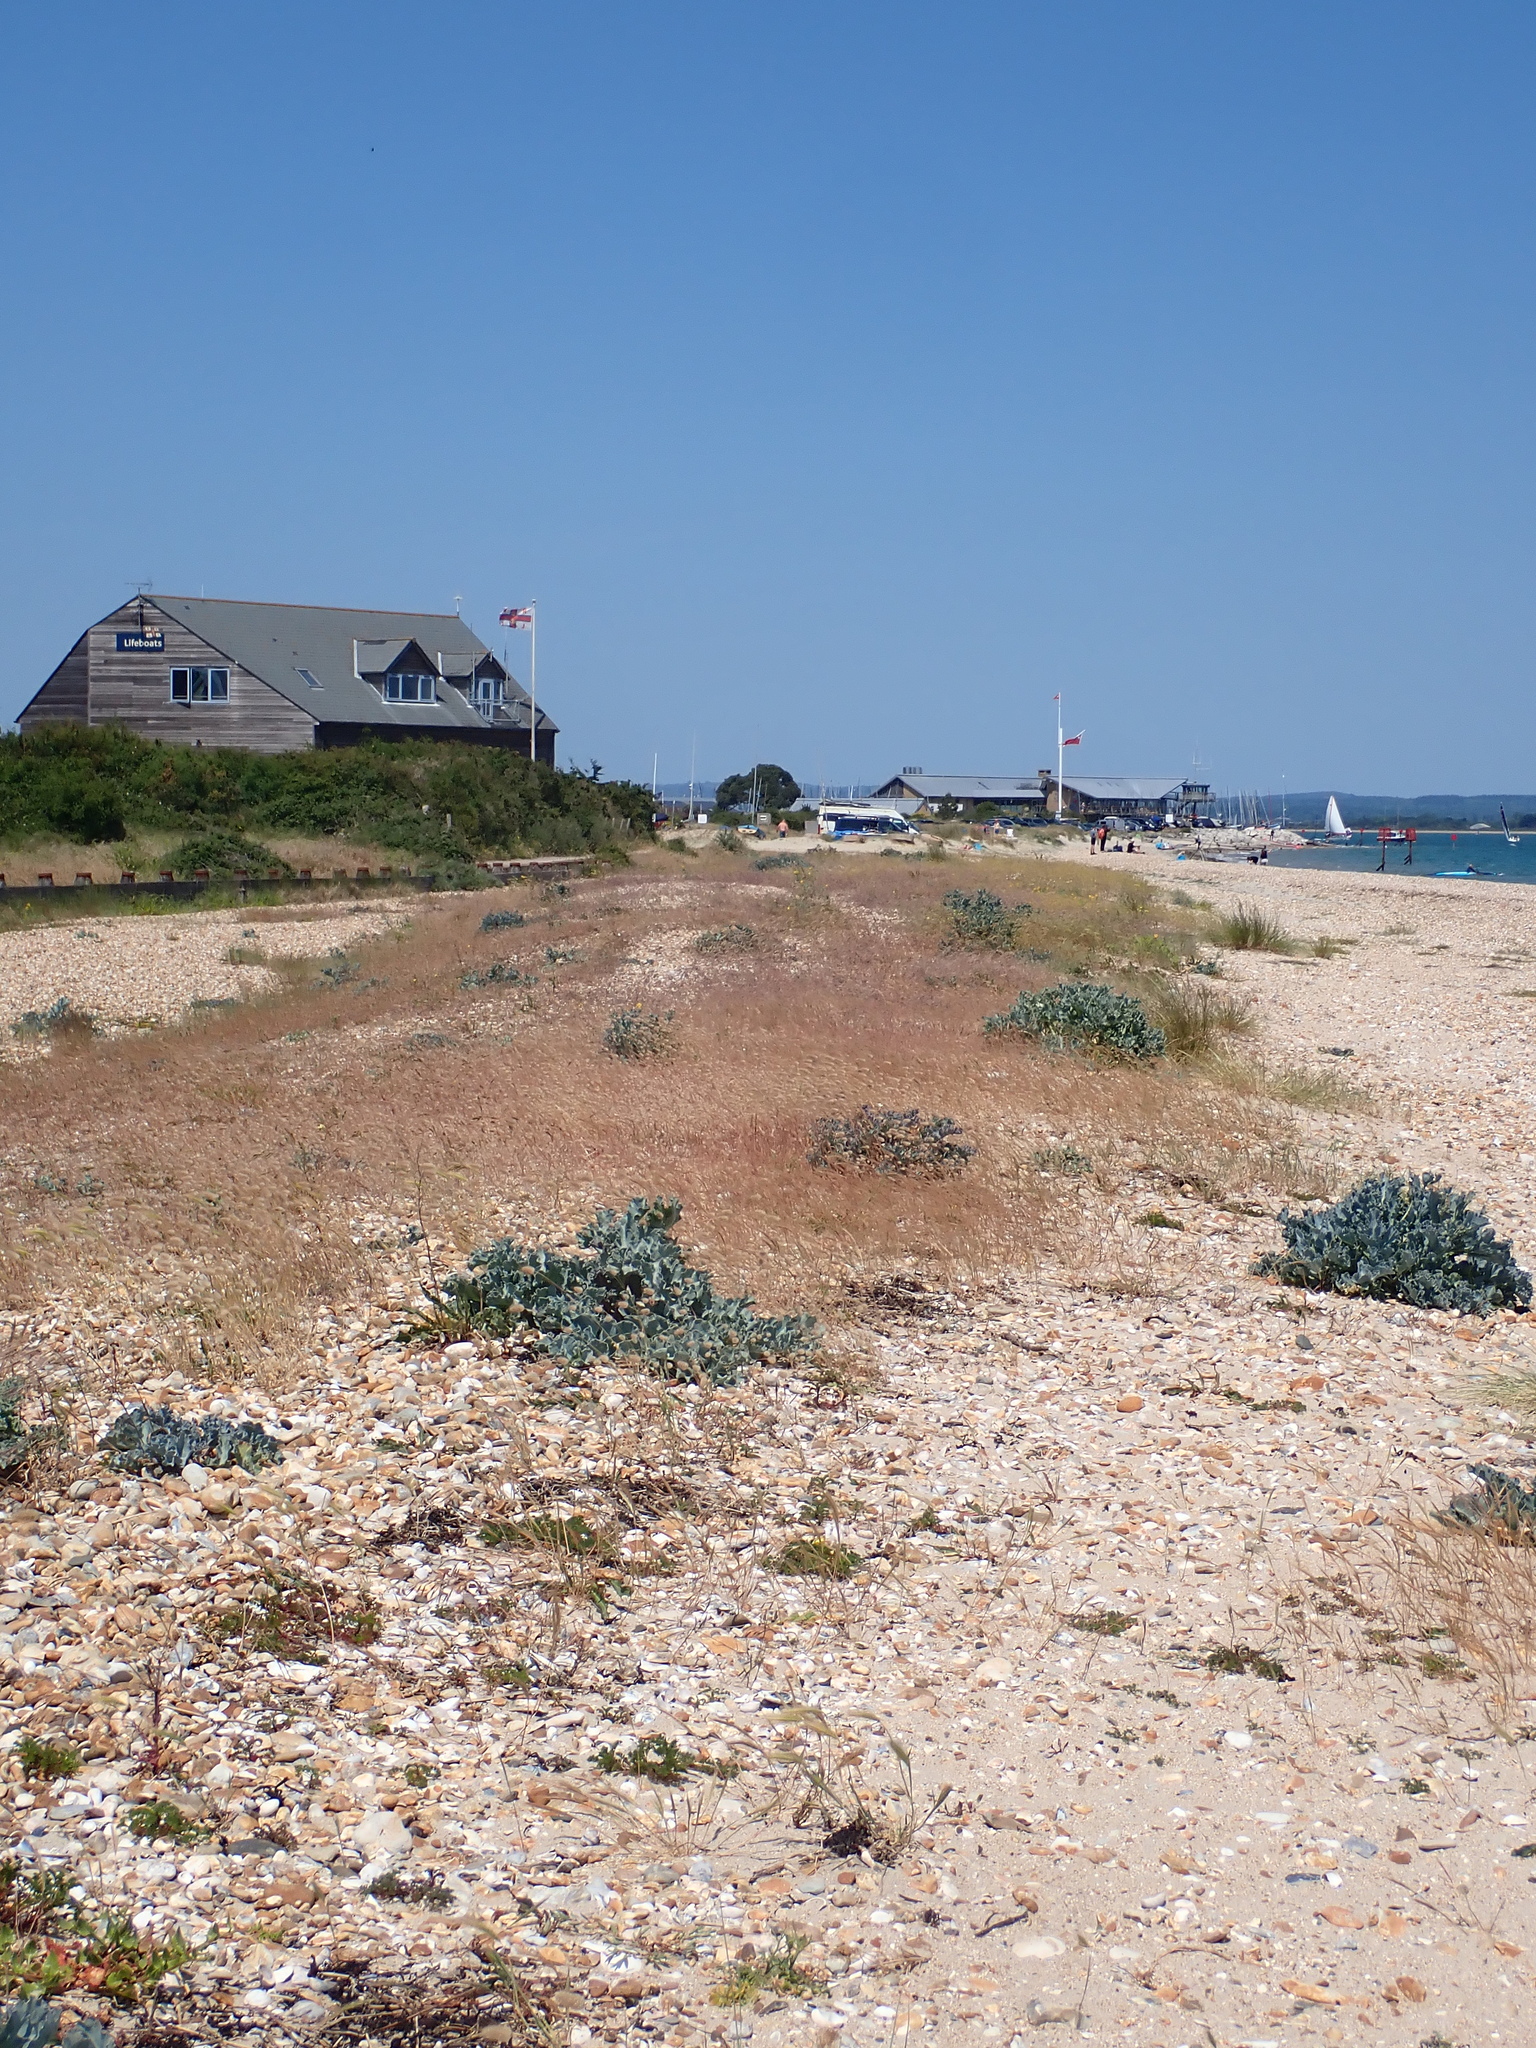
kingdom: Plantae
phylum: Tracheophyta
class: Magnoliopsida
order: Brassicales
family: Brassicaceae
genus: Crambe
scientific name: Crambe maritima
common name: Sea-kale
